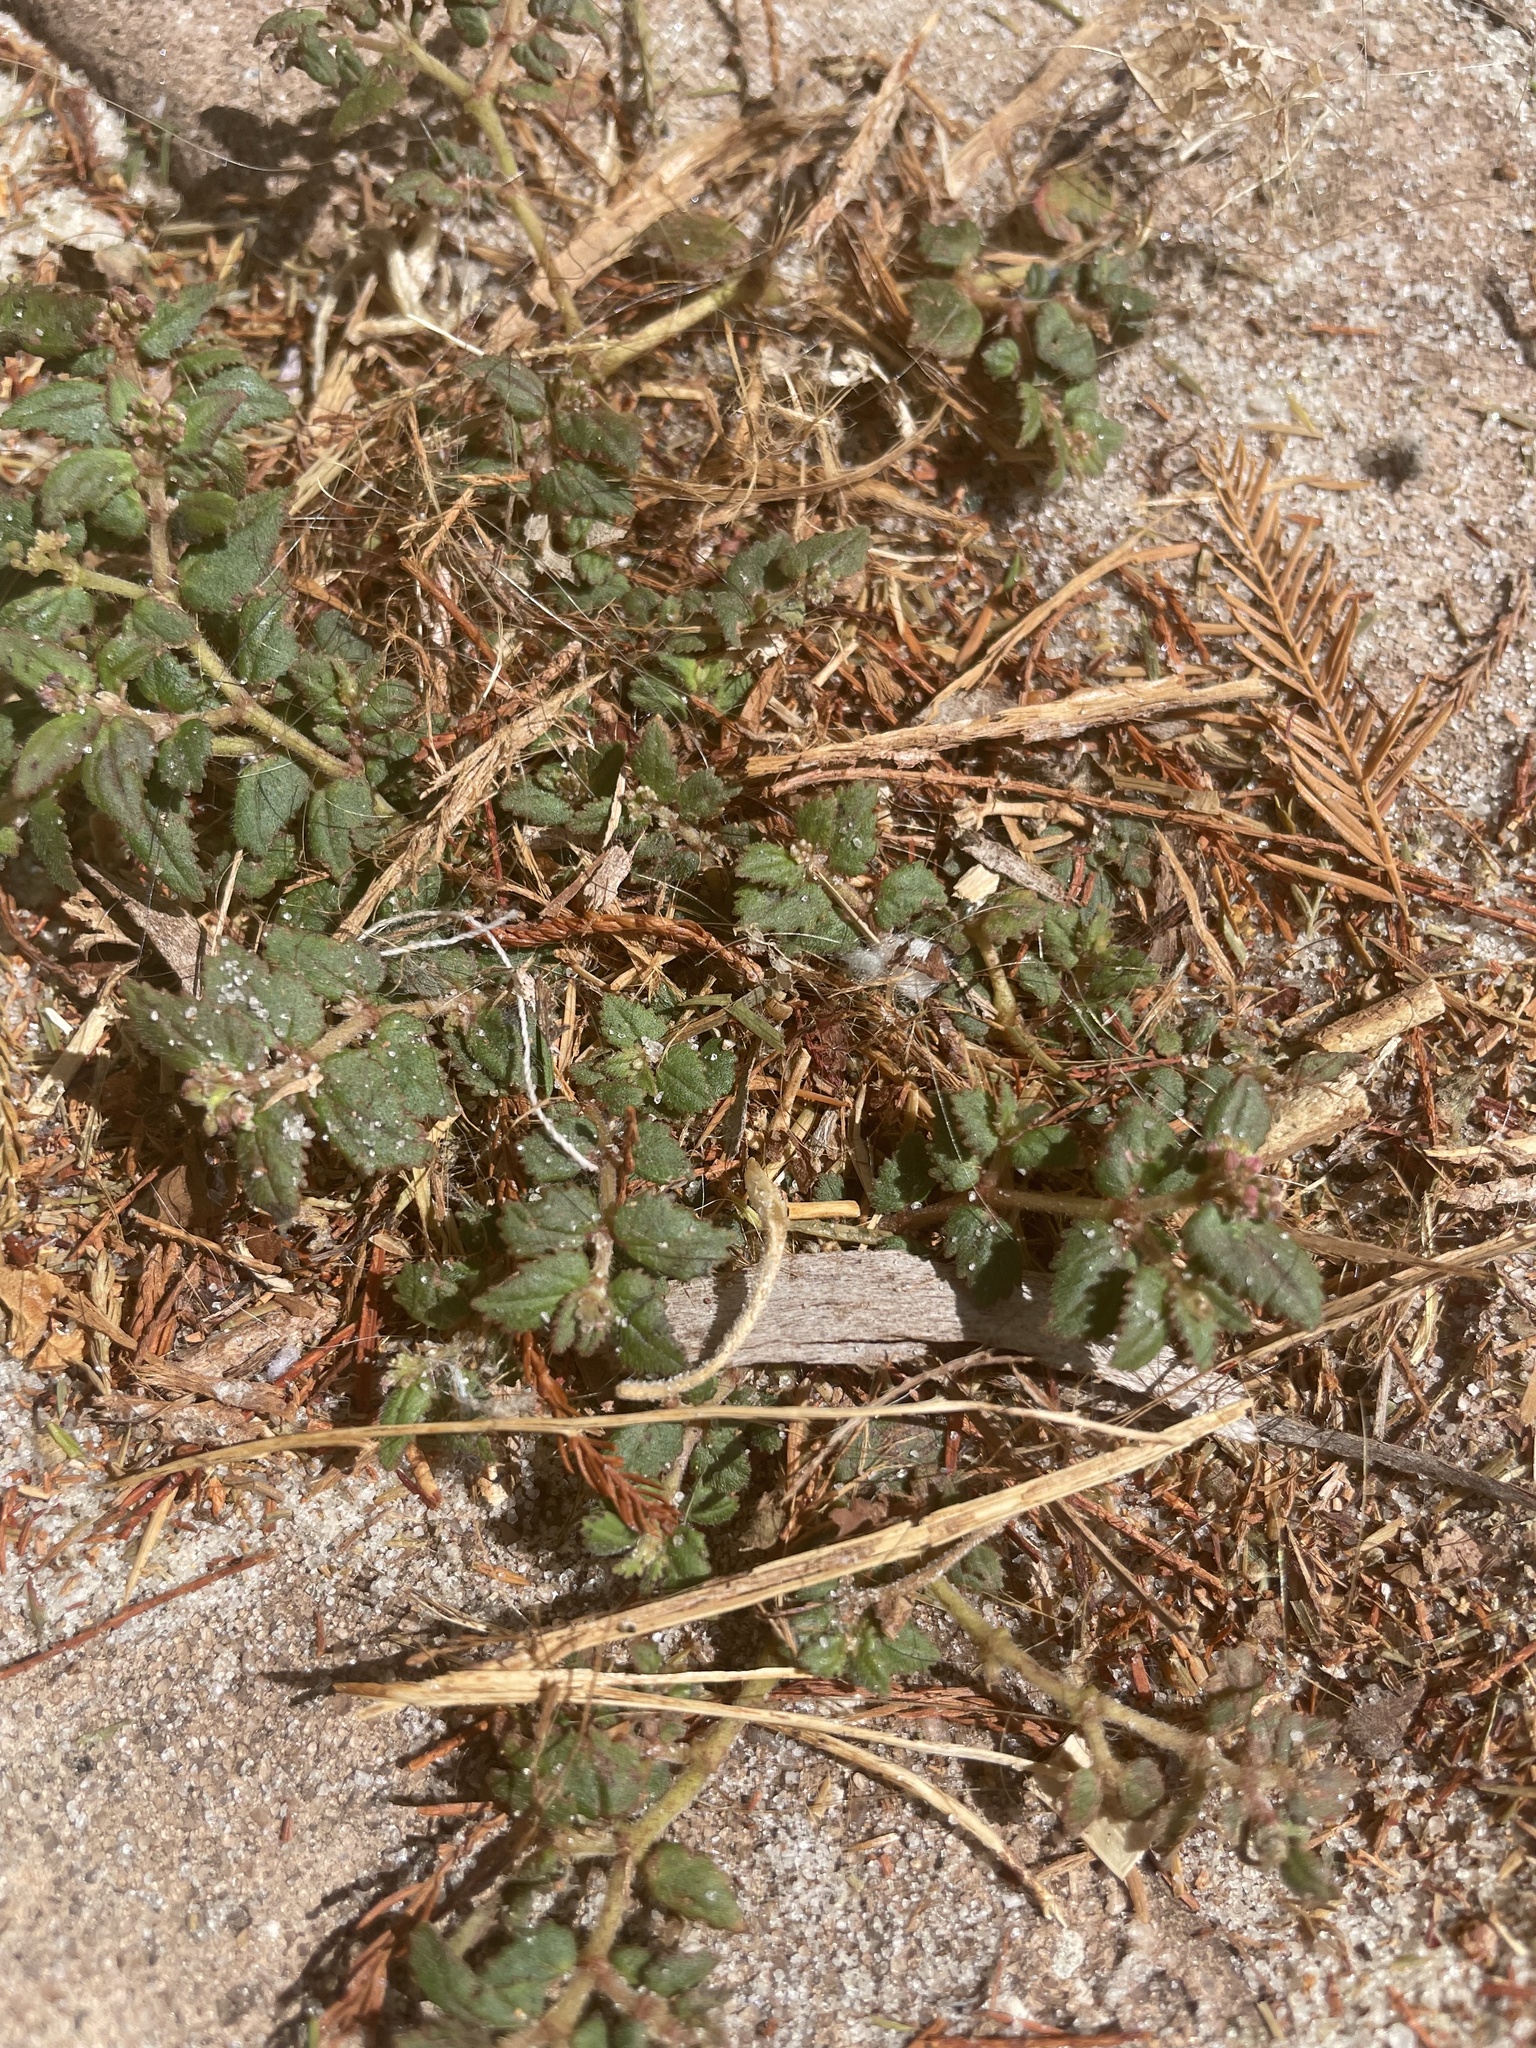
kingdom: Plantae
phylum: Tracheophyta
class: Magnoliopsida
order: Malpighiales
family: Euphorbiaceae
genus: Euphorbia
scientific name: Euphorbia ophthalmica
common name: Florida hammock sandmat
